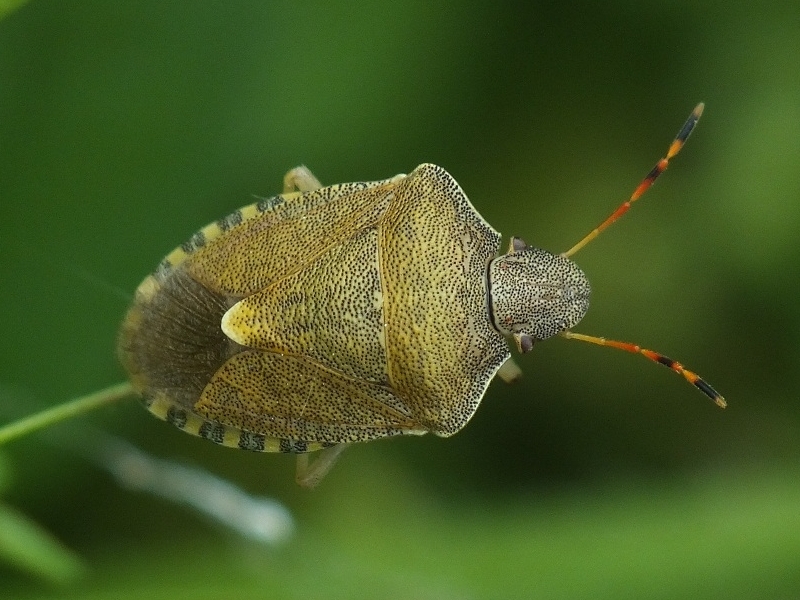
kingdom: Animalia
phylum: Arthropoda
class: Insecta
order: Hemiptera
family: Pentatomidae
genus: Holcostethus
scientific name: Holcostethus strictus
